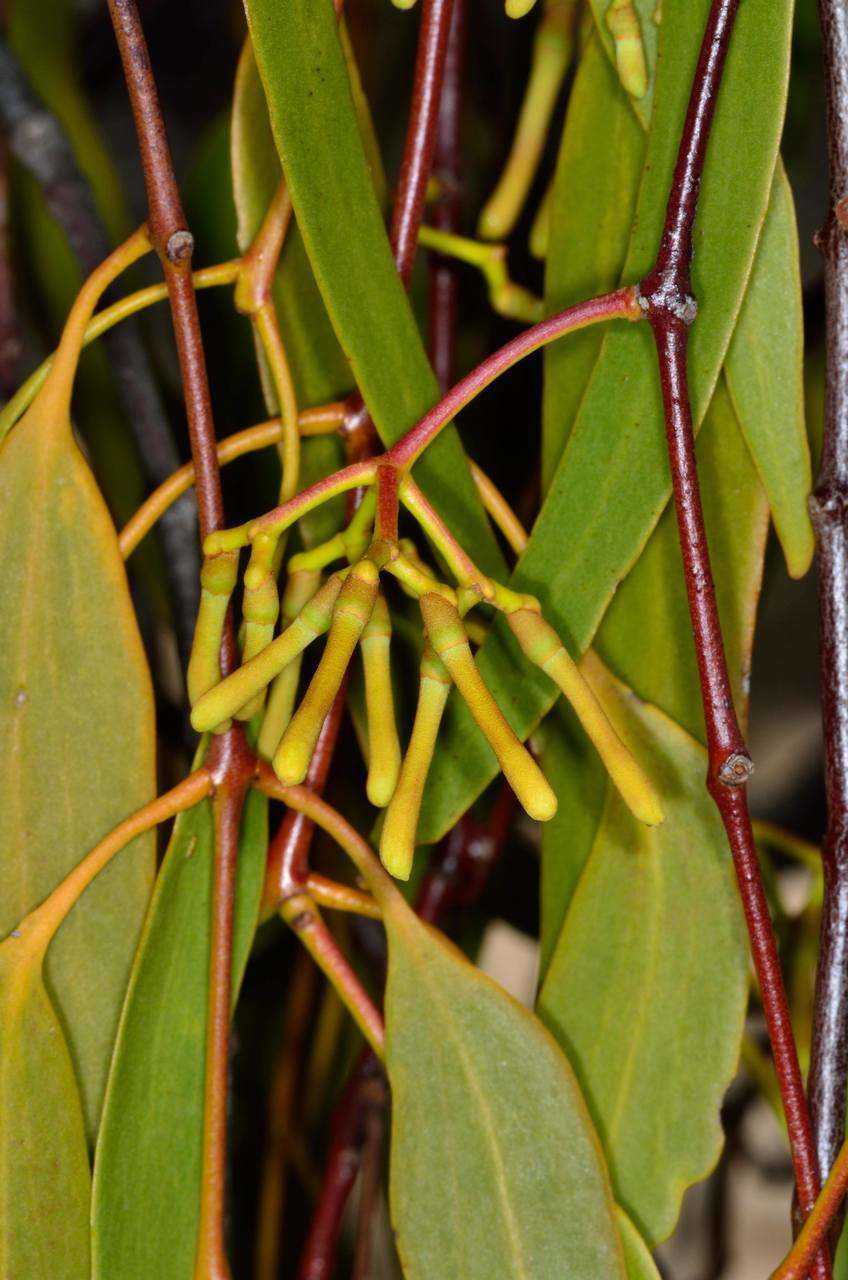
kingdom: Plantae
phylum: Tracheophyta
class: Magnoliopsida
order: Santalales
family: Loranthaceae
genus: Amyema
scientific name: Amyema miquelii
